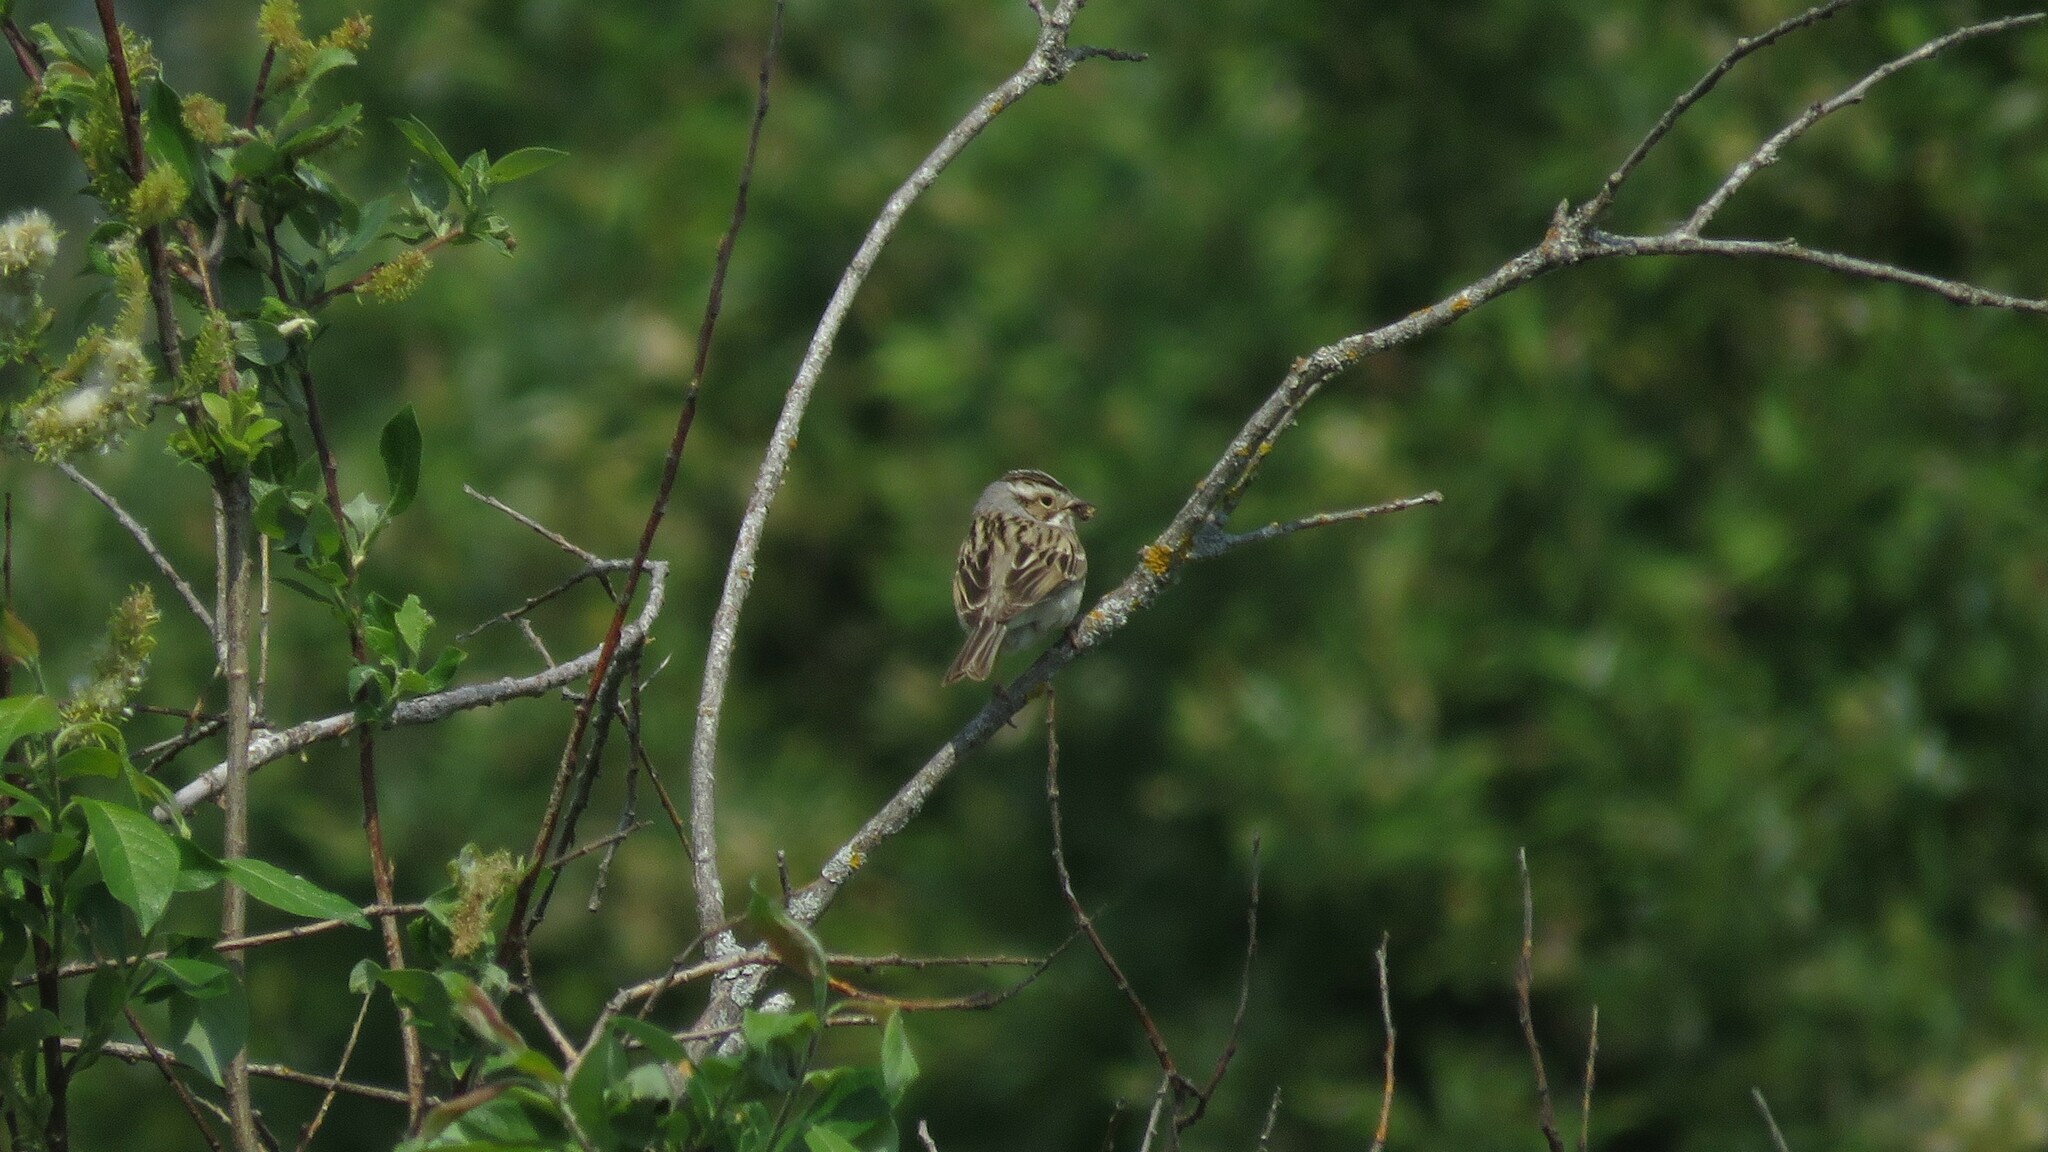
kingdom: Animalia
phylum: Chordata
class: Aves
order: Passeriformes
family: Passerellidae
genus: Spizella
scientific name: Spizella pallida
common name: Clay-colored sparrow
